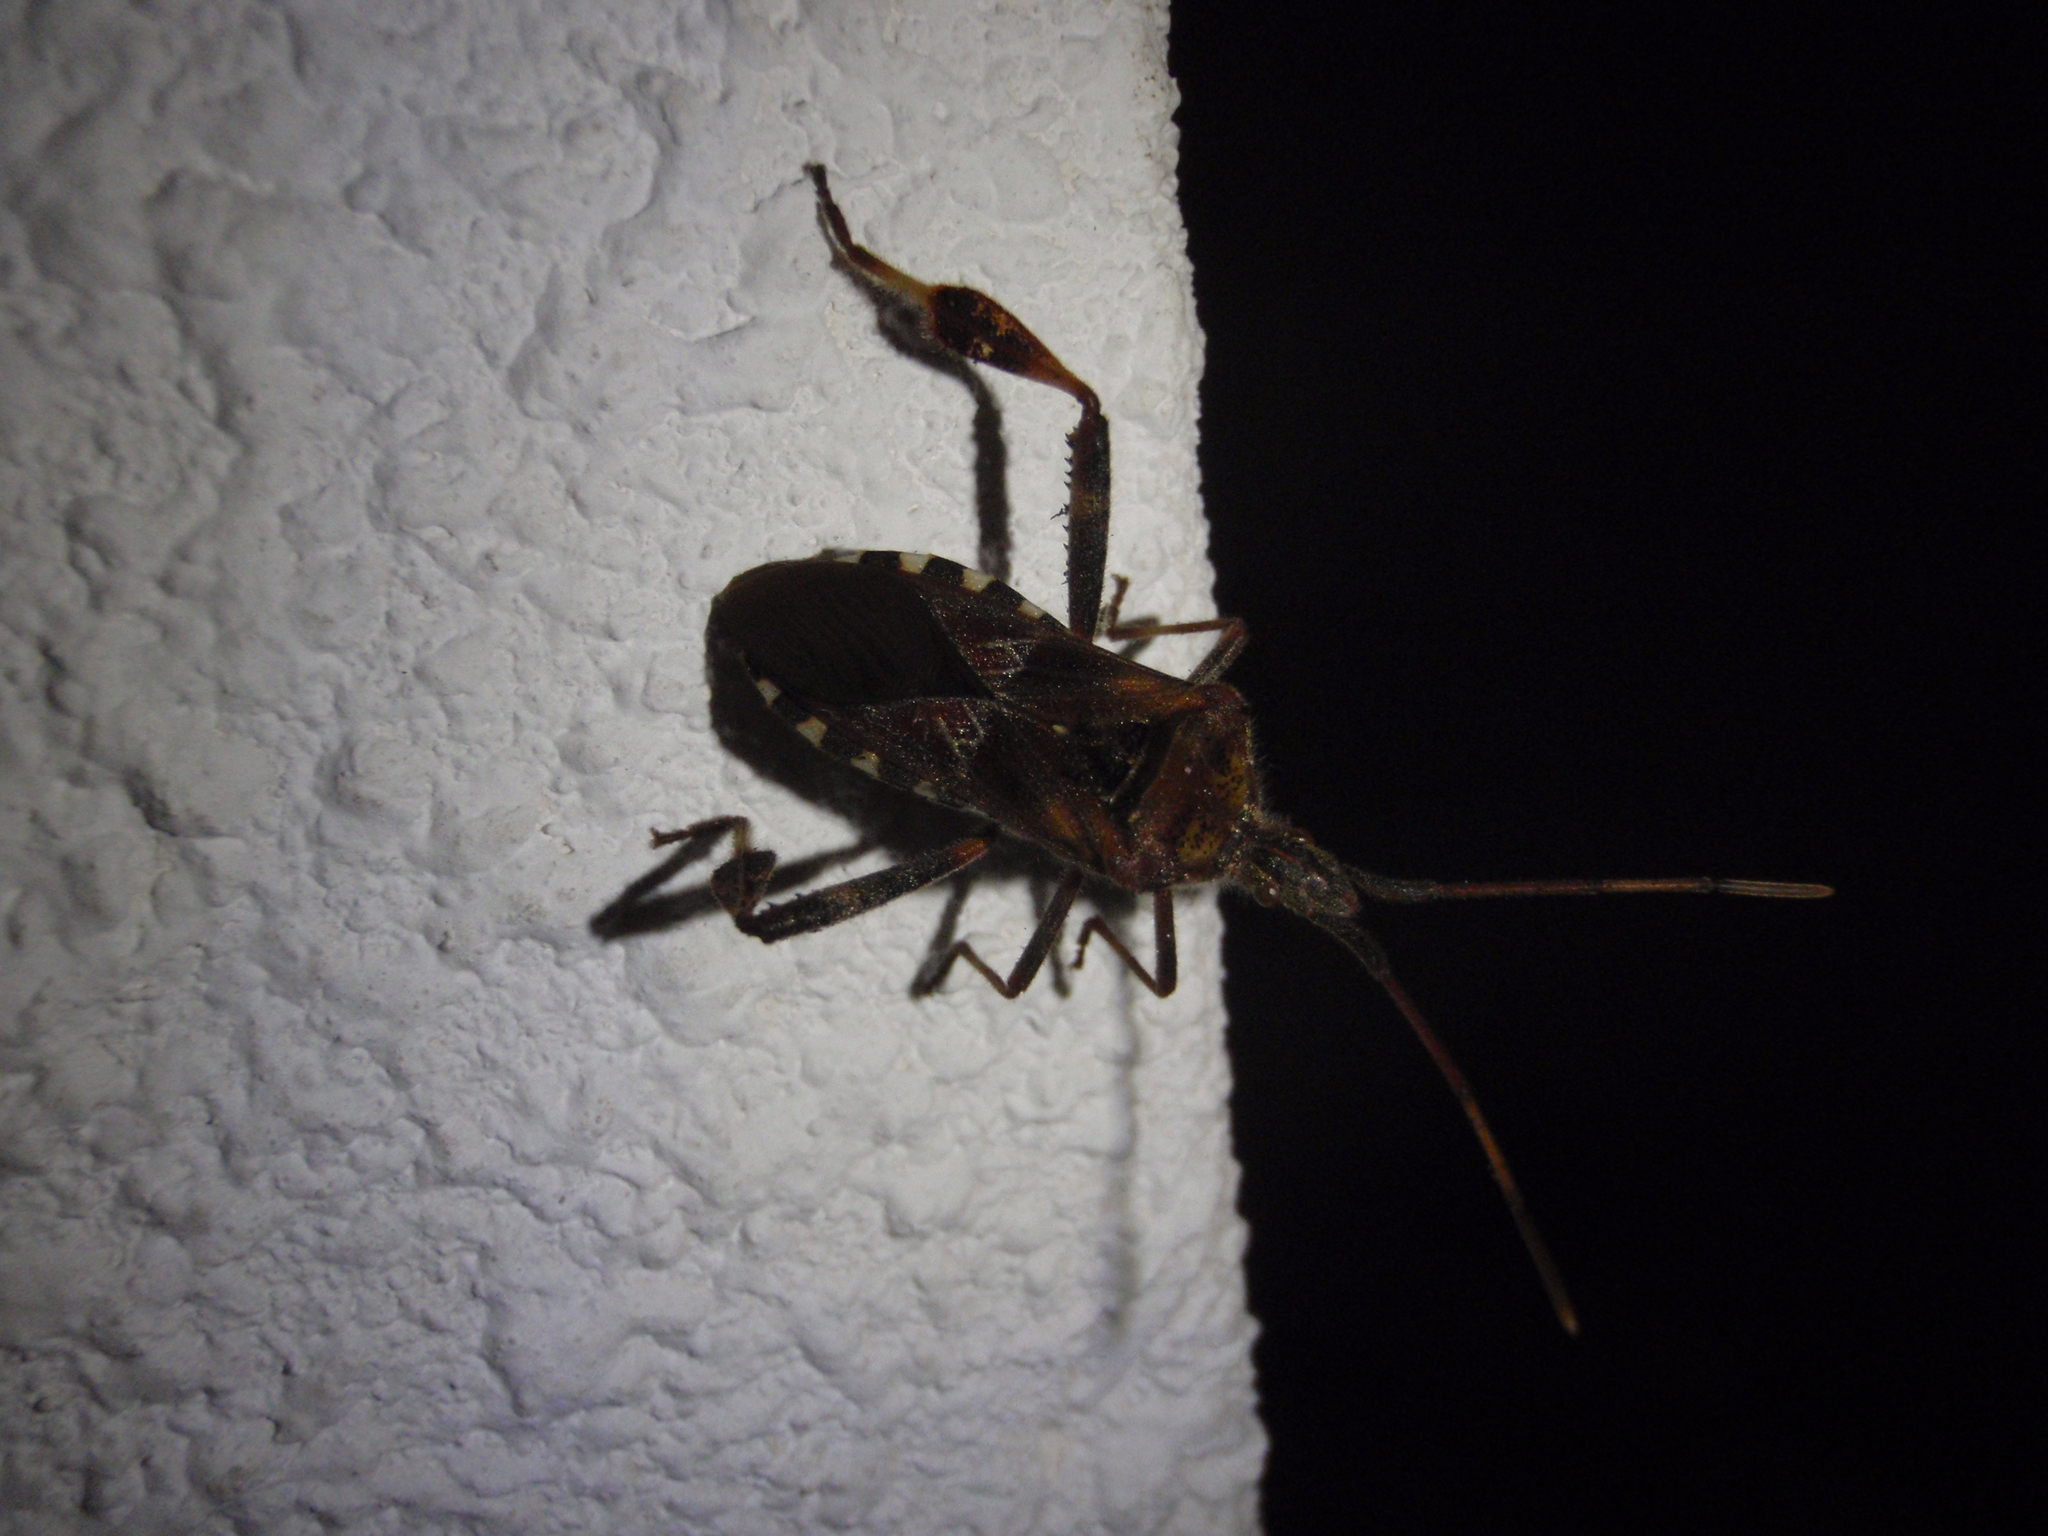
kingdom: Animalia
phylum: Arthropoda
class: Insecta
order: Hemiptera
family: Coreidae
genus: Leptoglossus
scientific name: Leptoglossus occidentalis
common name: Western conifer-seed bug
